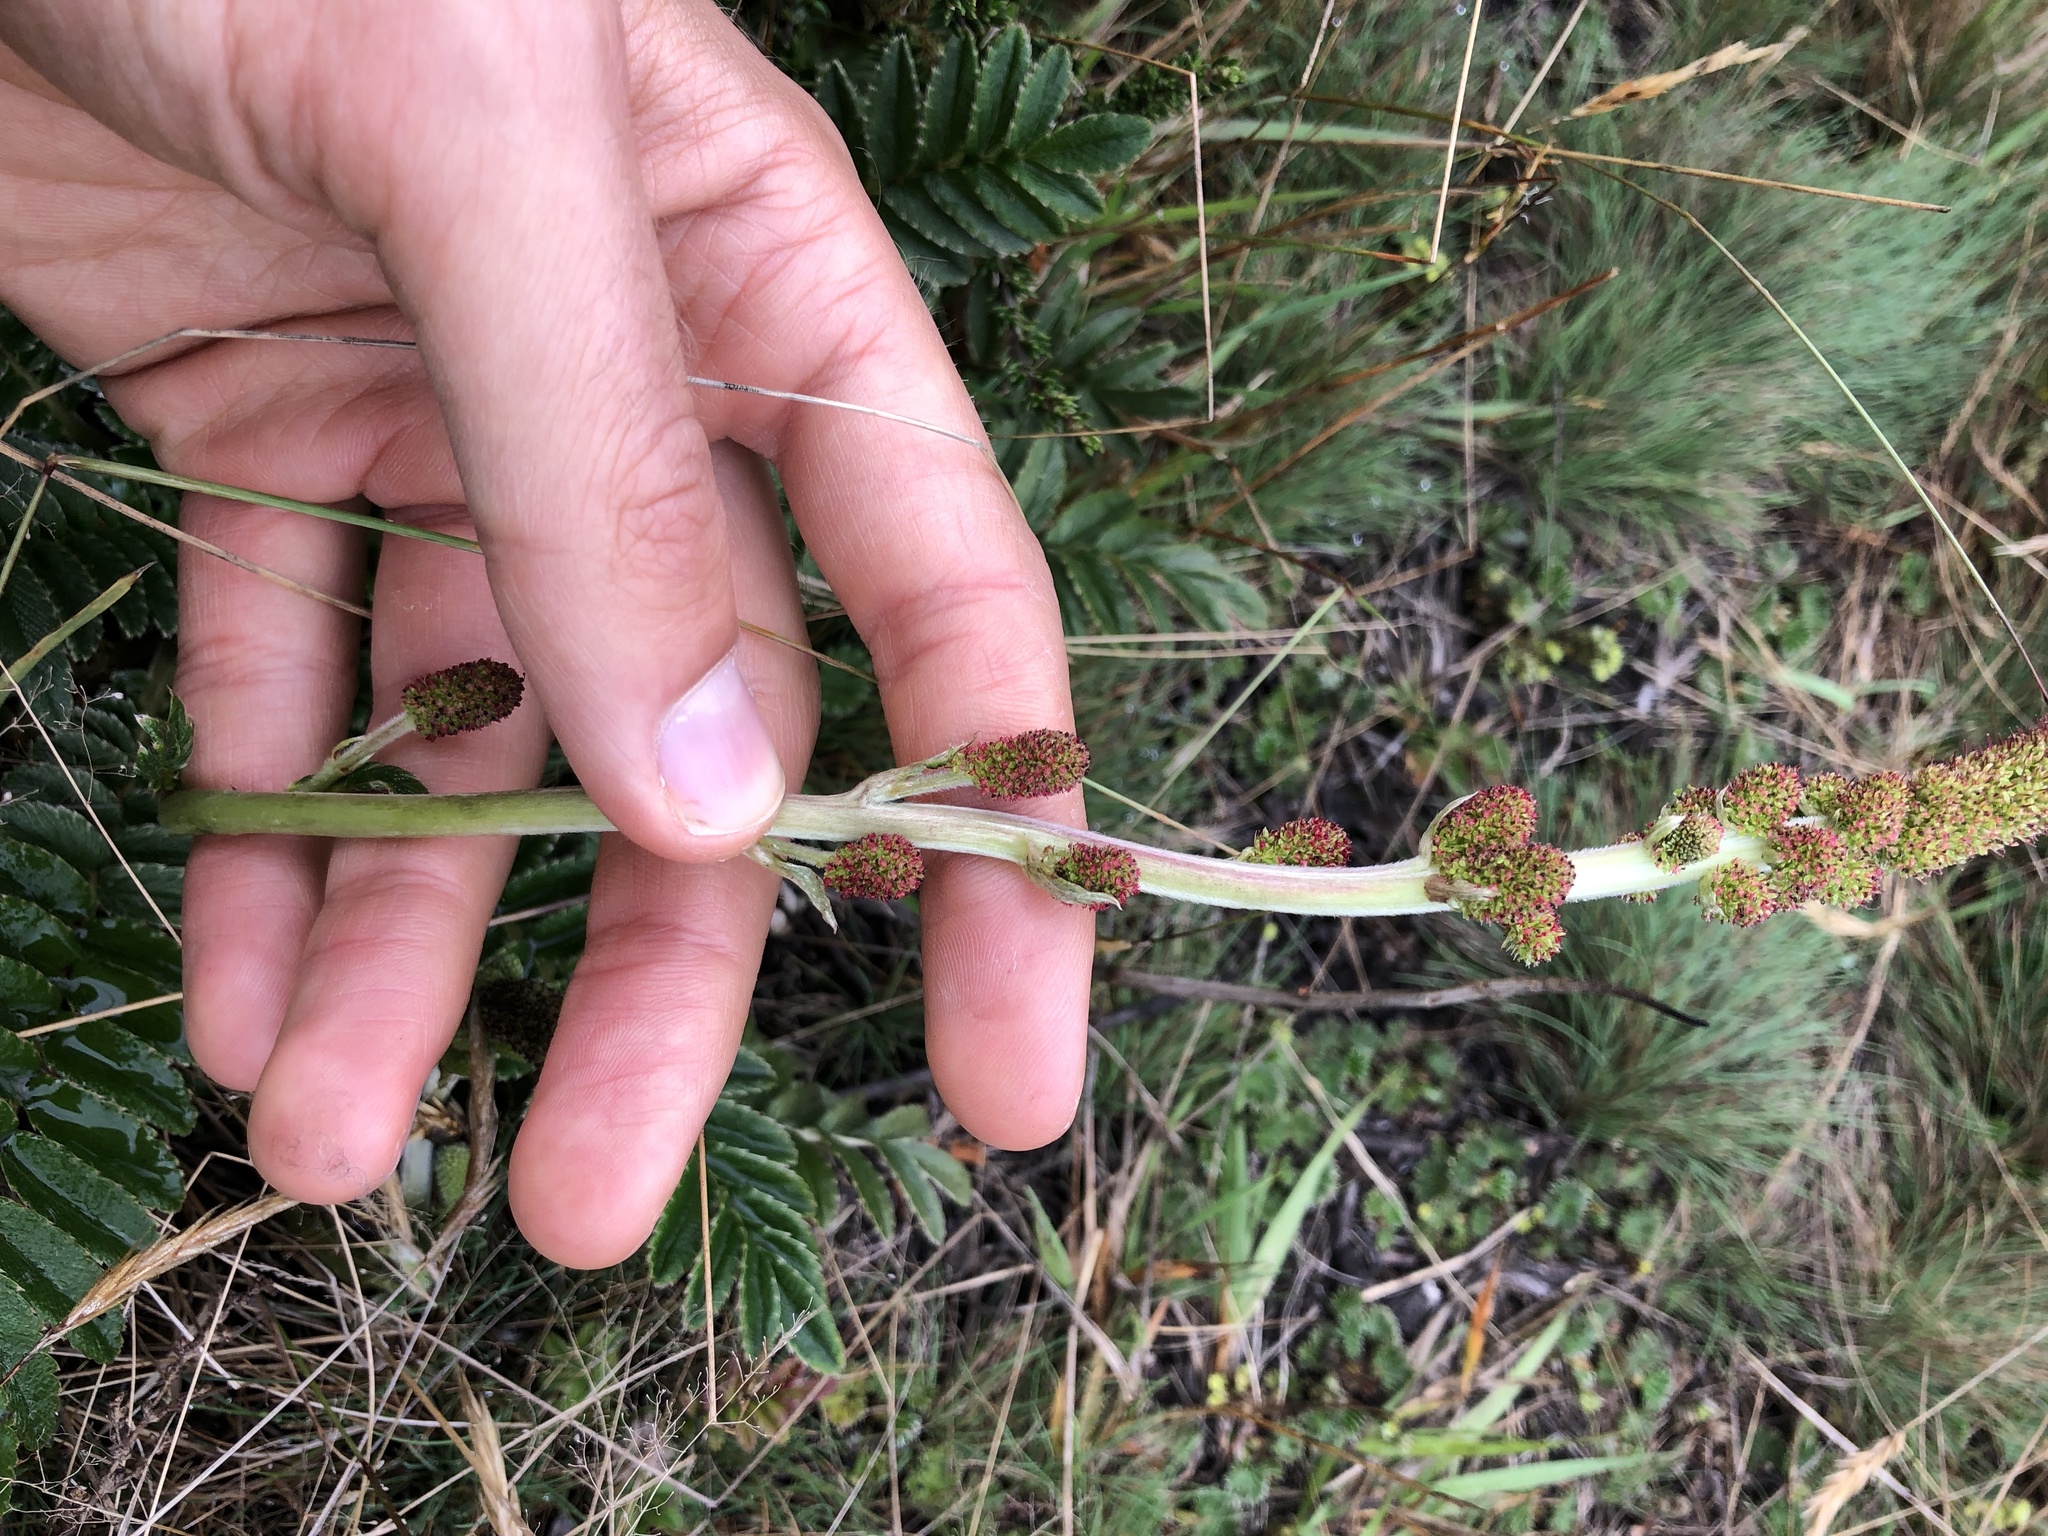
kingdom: Plantae
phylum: Tracheophyta
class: Magnoliopsida
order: Rosales
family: Rosaceae
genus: Acaena
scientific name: Acaena cylindristachya
